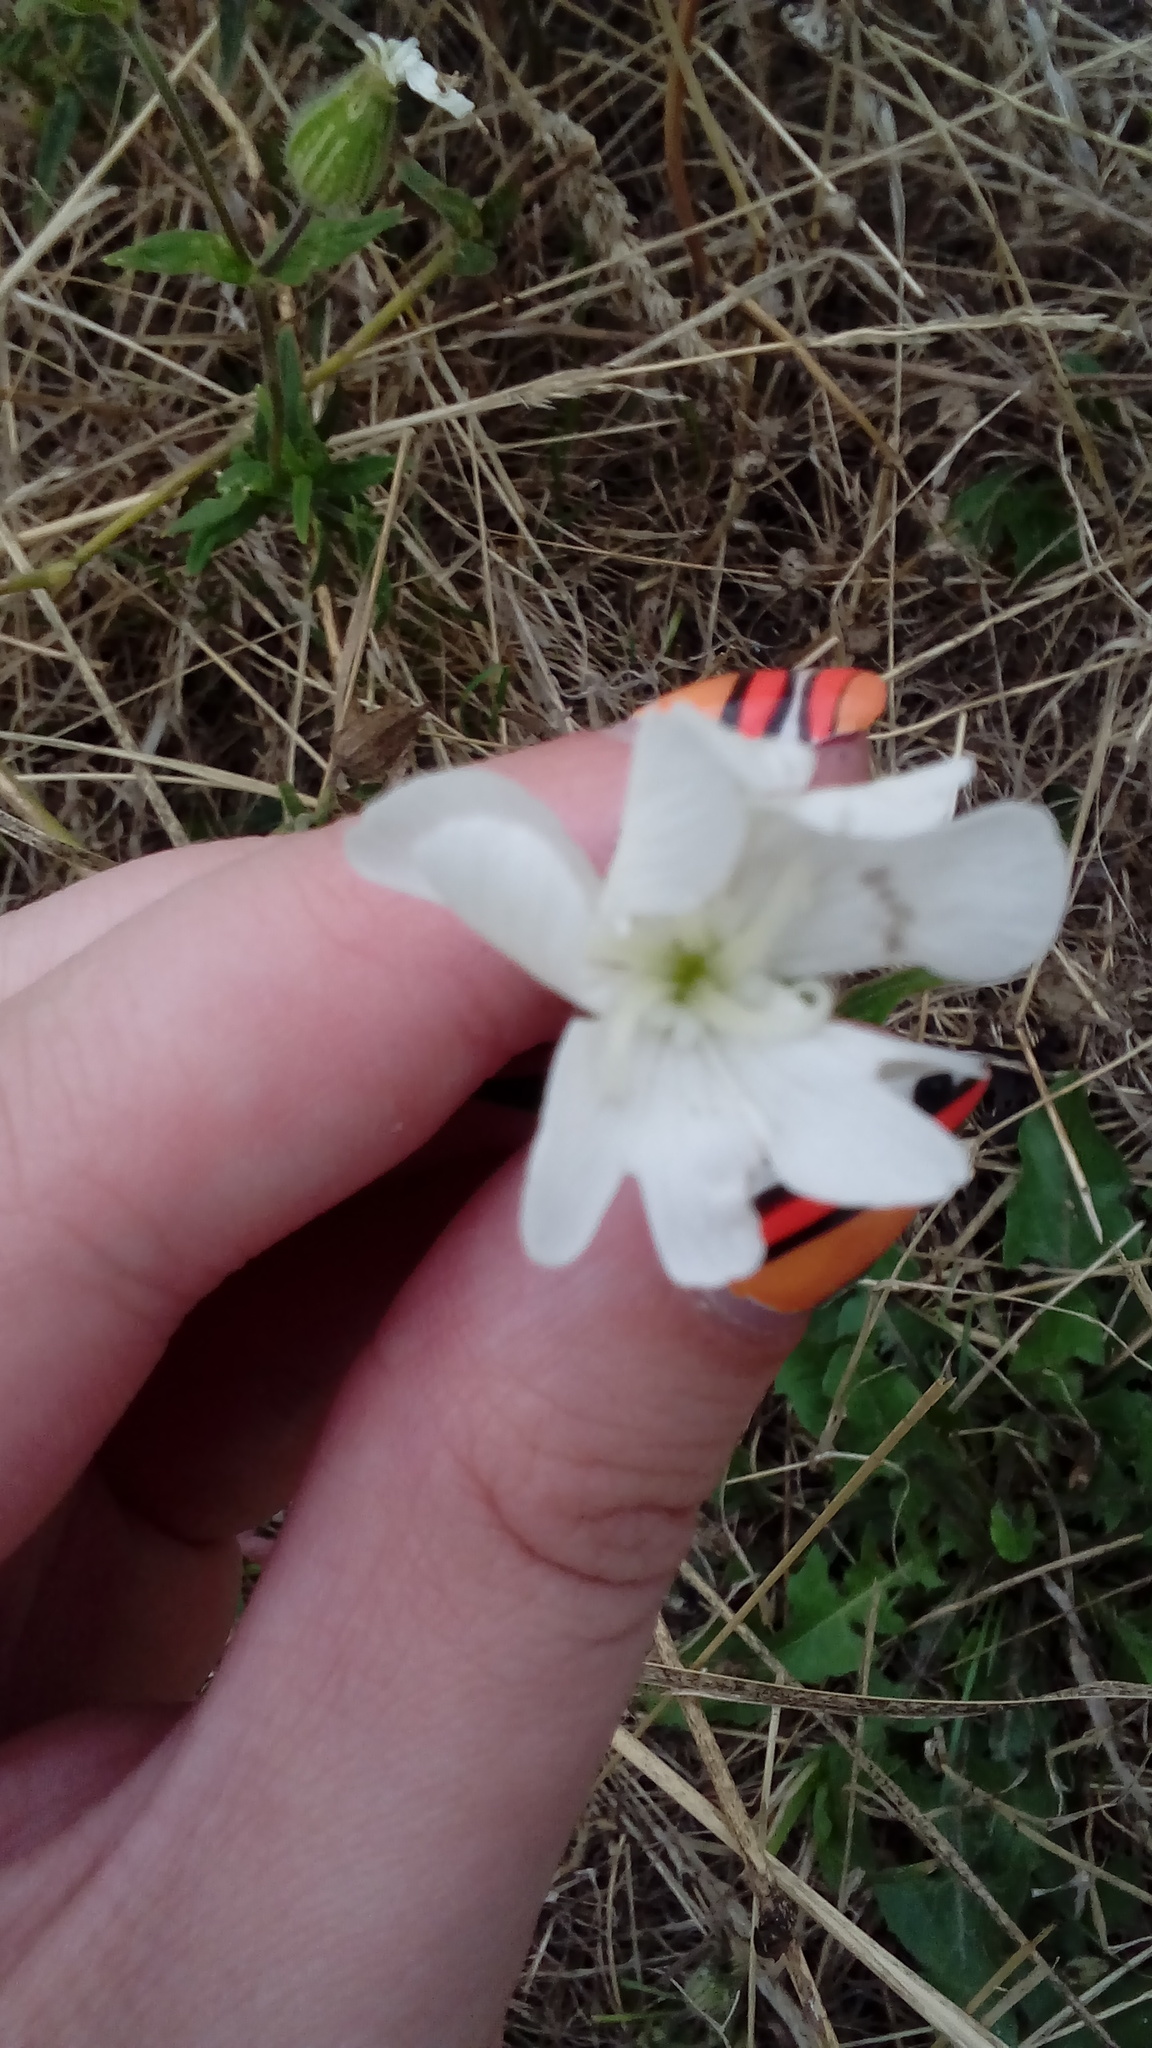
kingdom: Plantae
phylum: Tracheophyta
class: Magnoliopsida
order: Caryophyllales
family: Caryophyllaceae
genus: Silene
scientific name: Silene latifolia
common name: White campion
